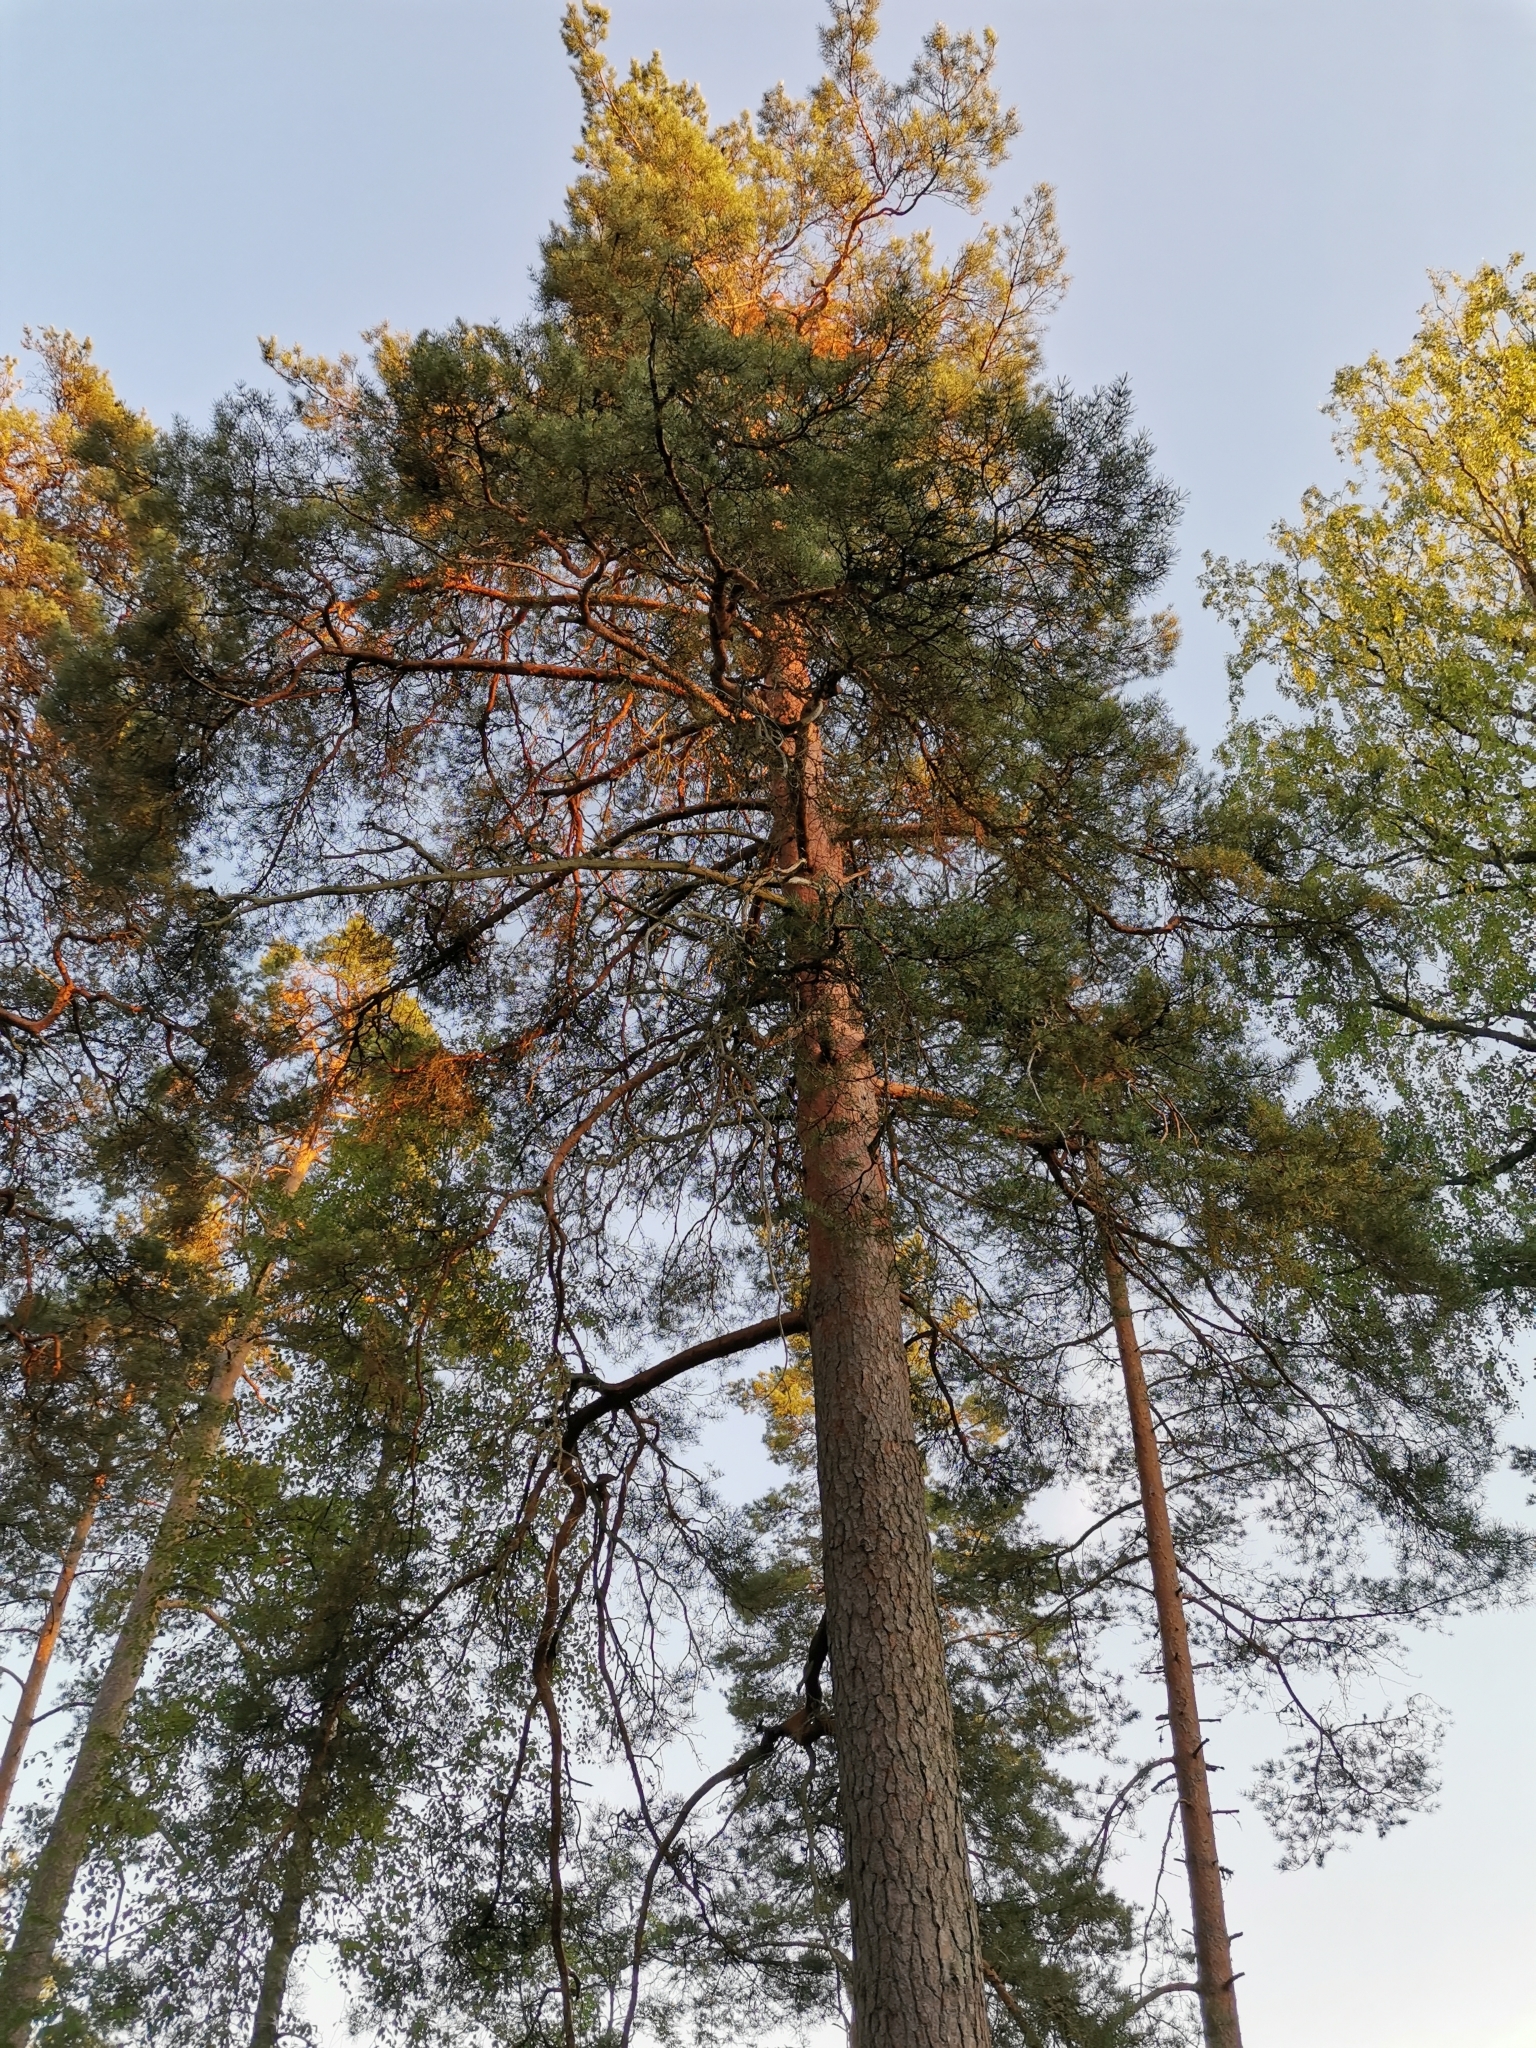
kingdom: Plantae
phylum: Tracheophyta
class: Pinopsida
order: Pinales
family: Pinaceae
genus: Pinus
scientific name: Pinus sylvestris
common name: Scots pine
